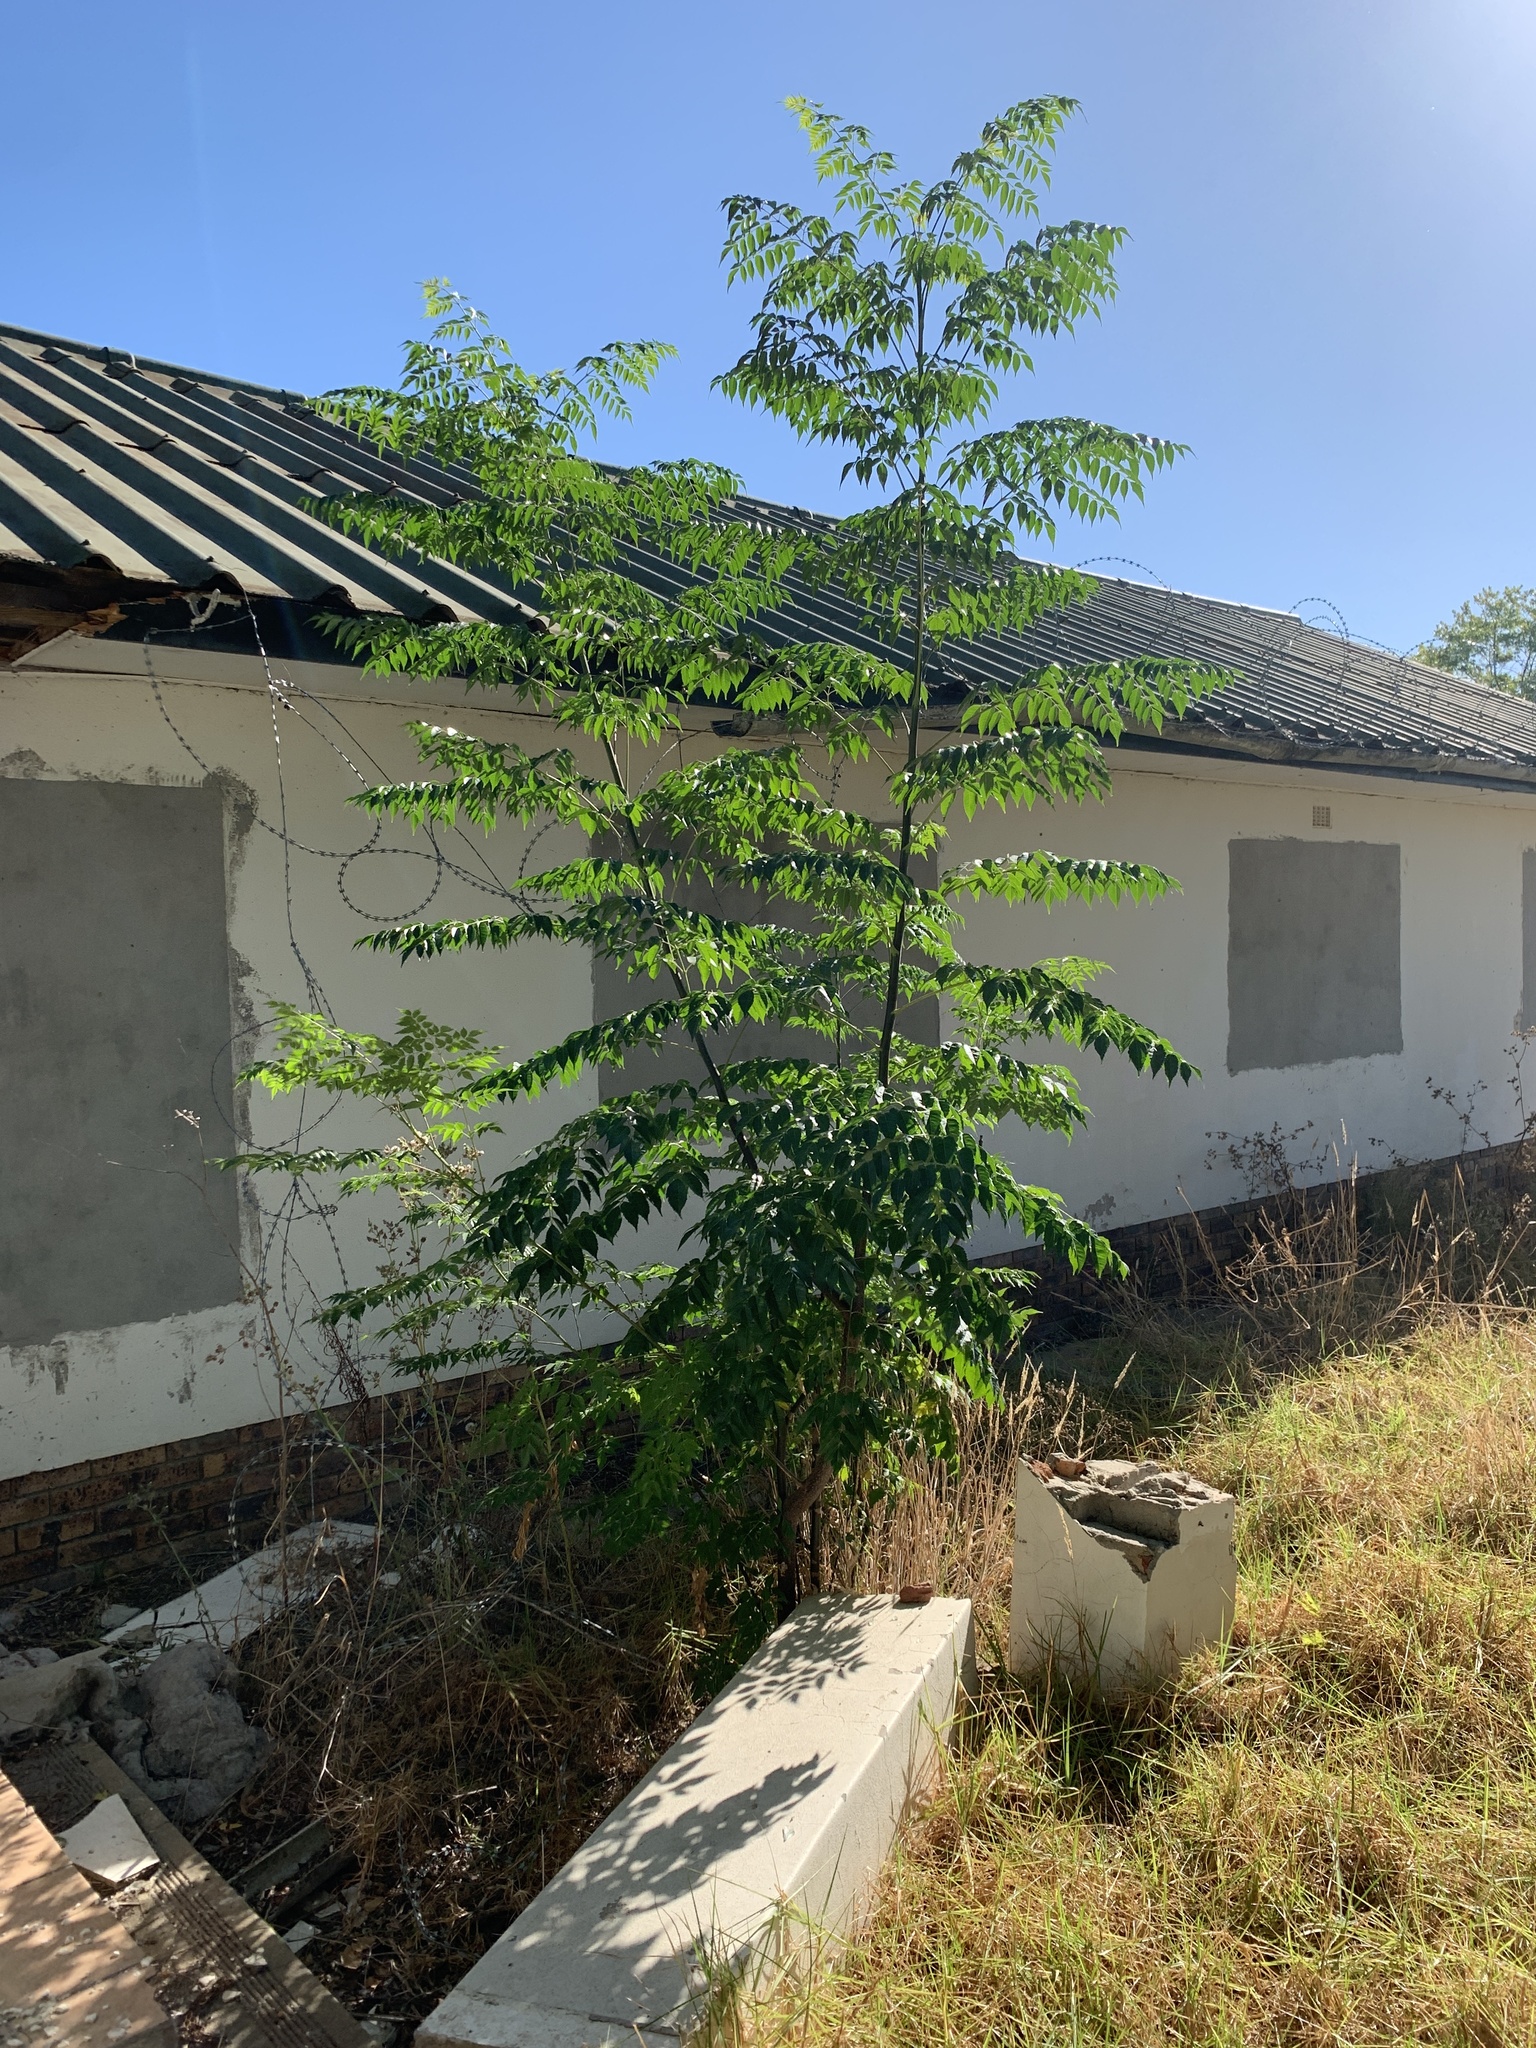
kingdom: Plantae
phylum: Tracheophyta
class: Magnoliopsida
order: Sapindales
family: Meliaceae
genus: Melia
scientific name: Melia azedarach
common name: Chinaberrytree
